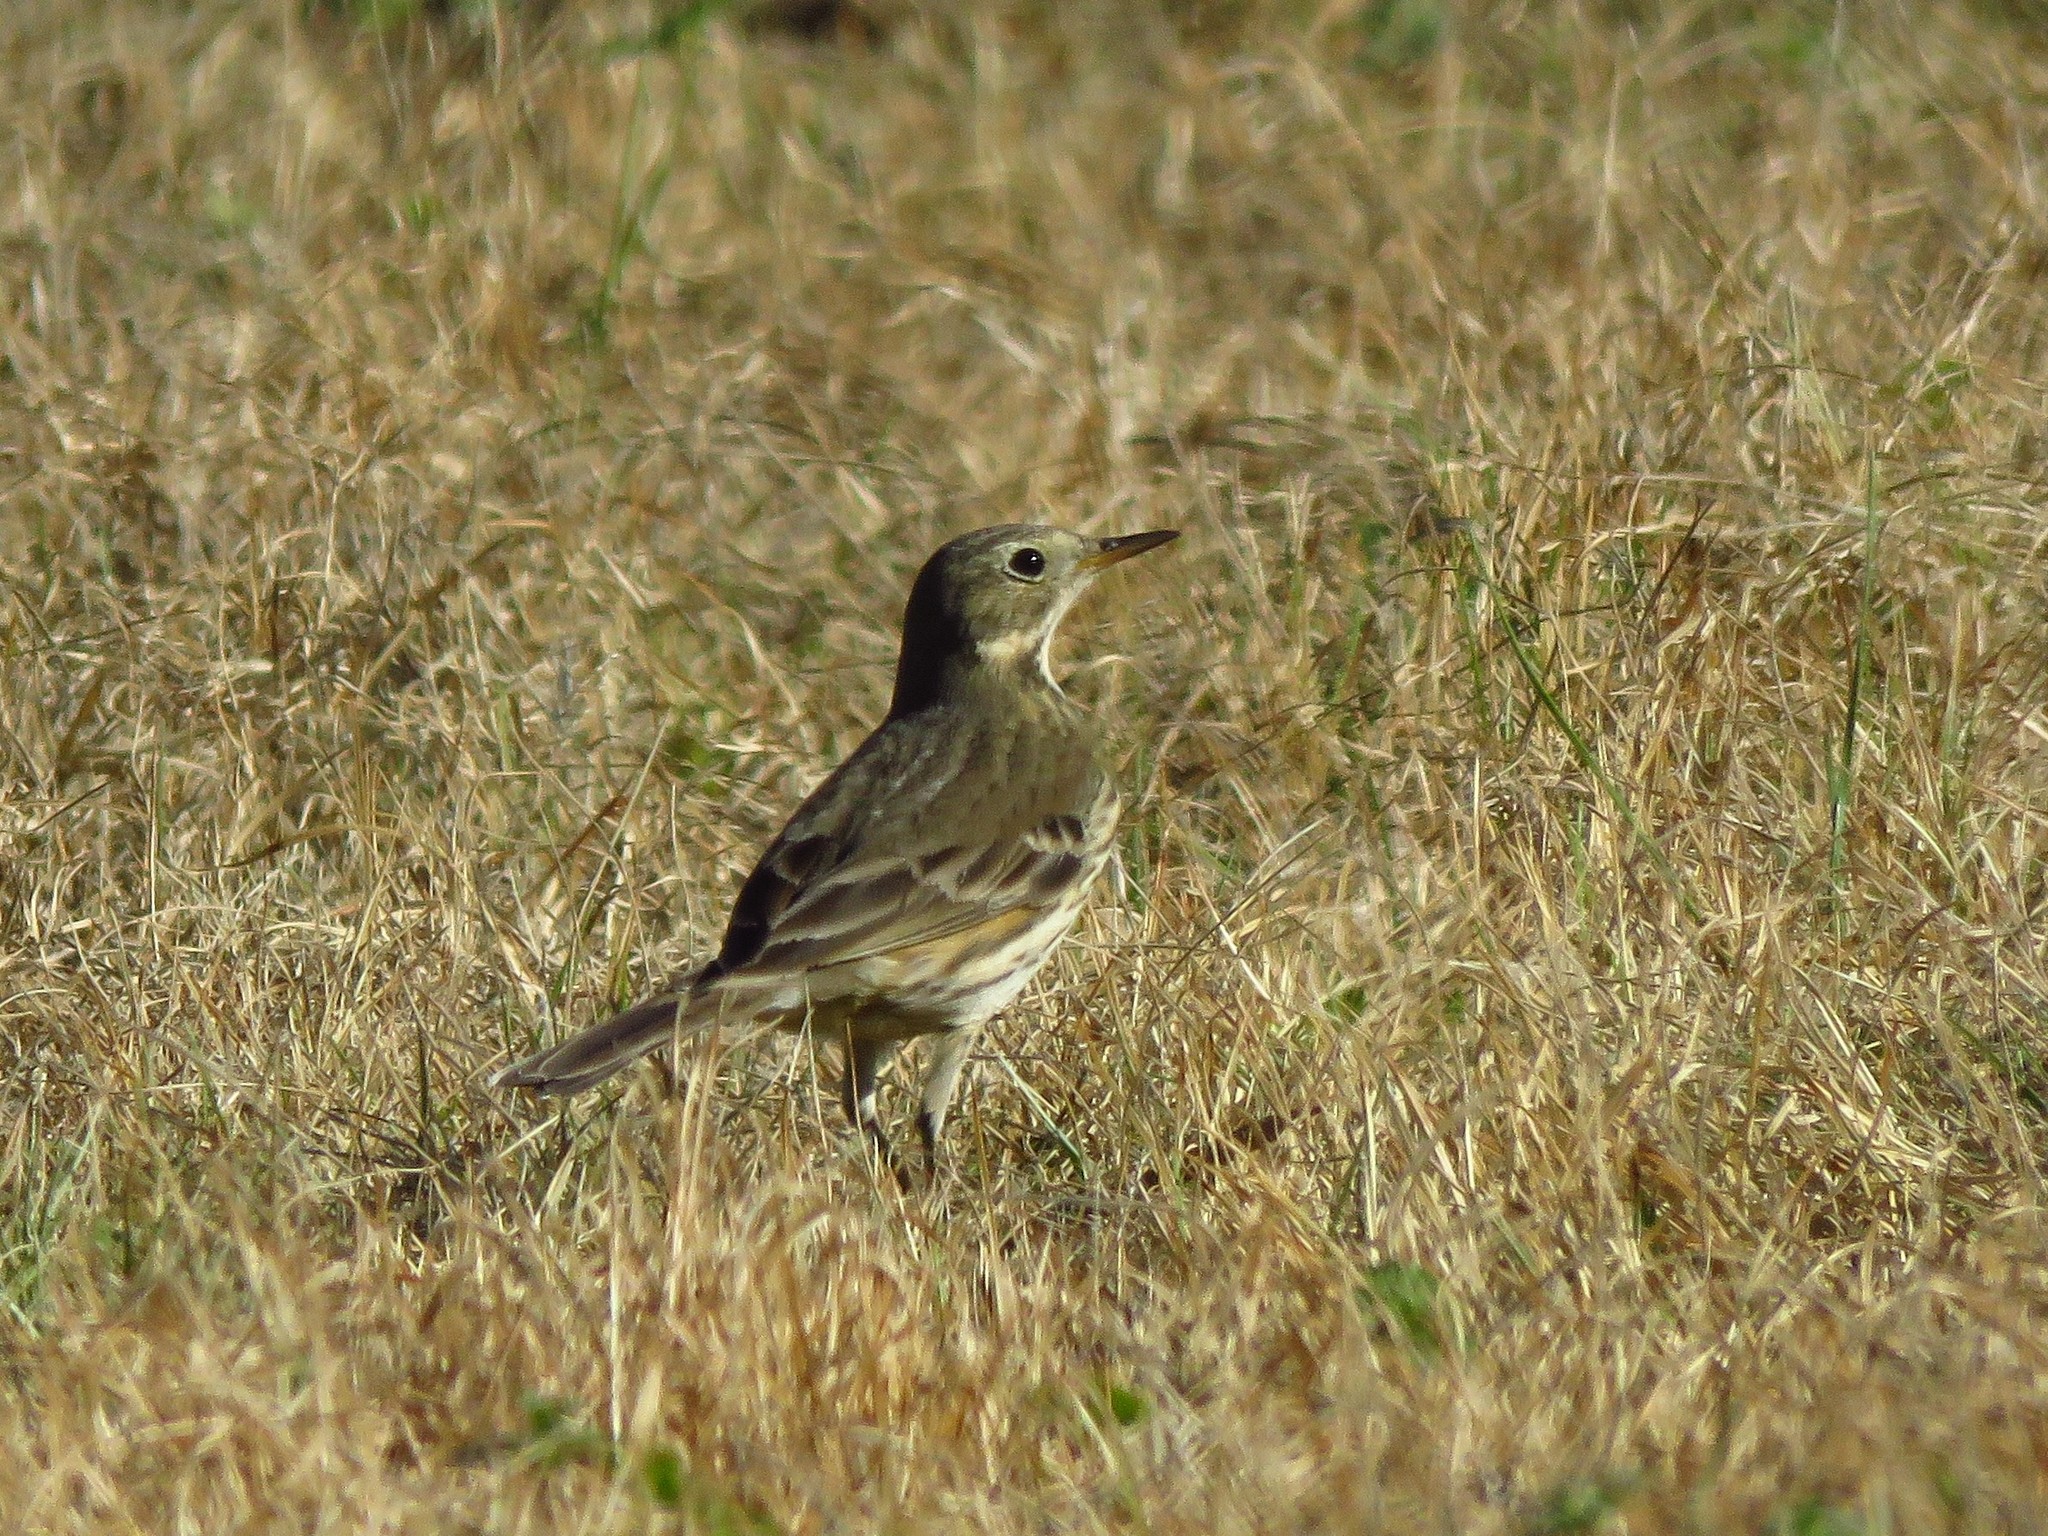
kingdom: Animalia
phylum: Chordata
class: Aves
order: Passeriformes
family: Motacillidae
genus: Anthus
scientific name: Anthus rubescens
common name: Buff-bellied pipit
